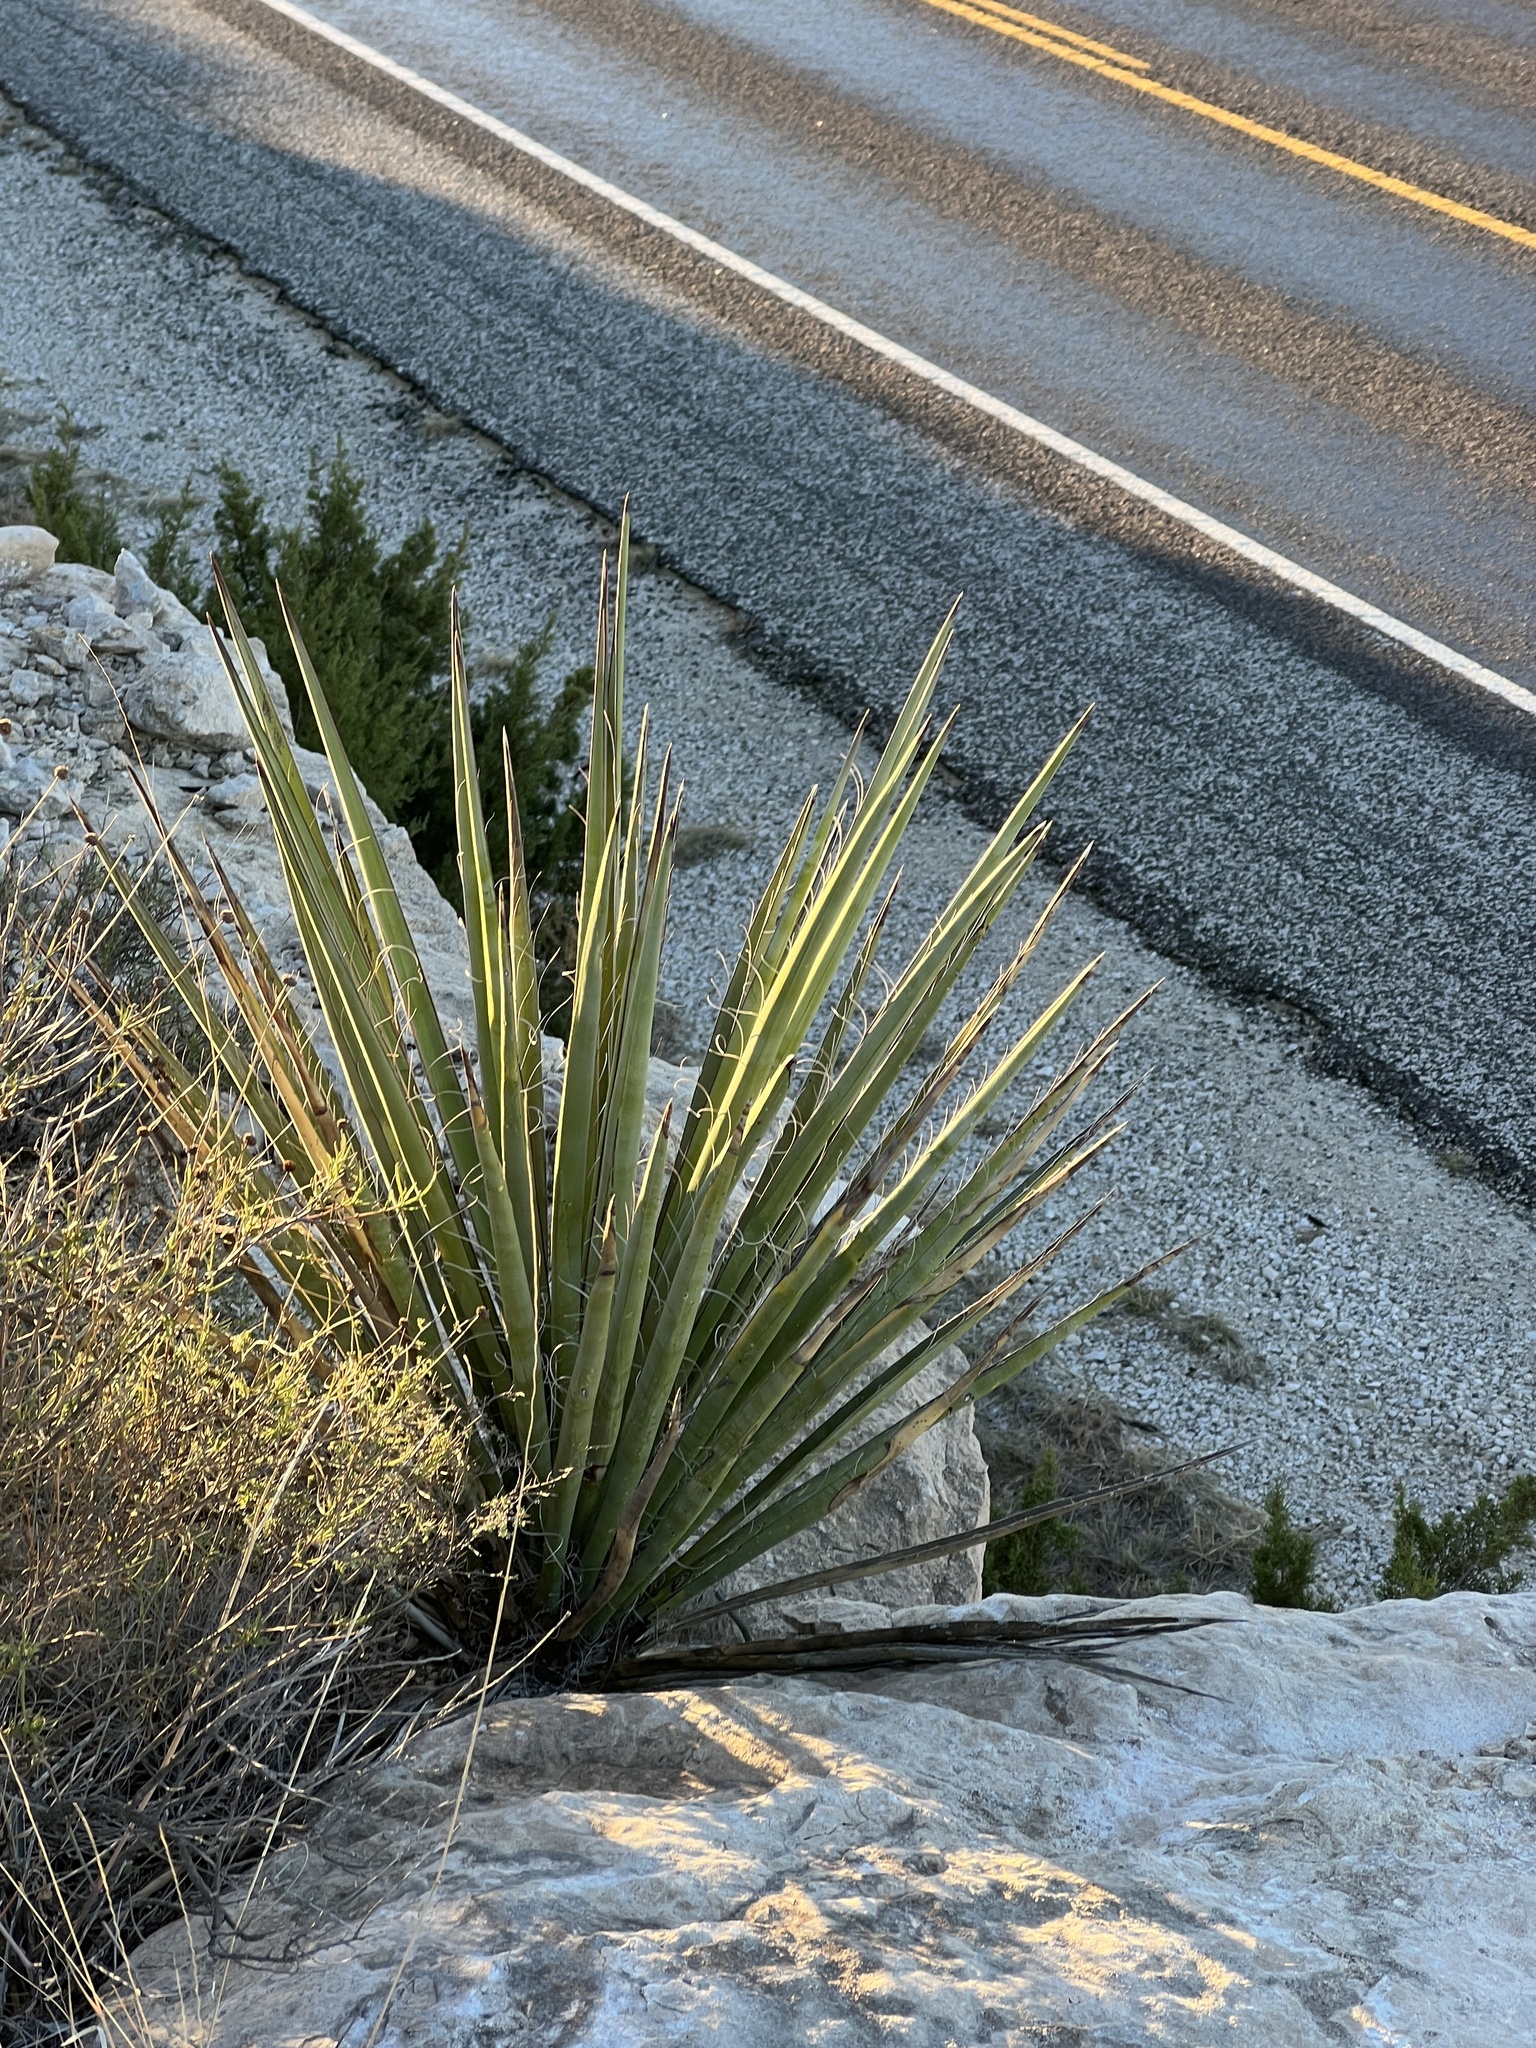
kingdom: Plantae
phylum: Tracheophyta
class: Liliopsida
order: Asparagales
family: Asparagaceae
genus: Yucca
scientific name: Yucca treculiana
